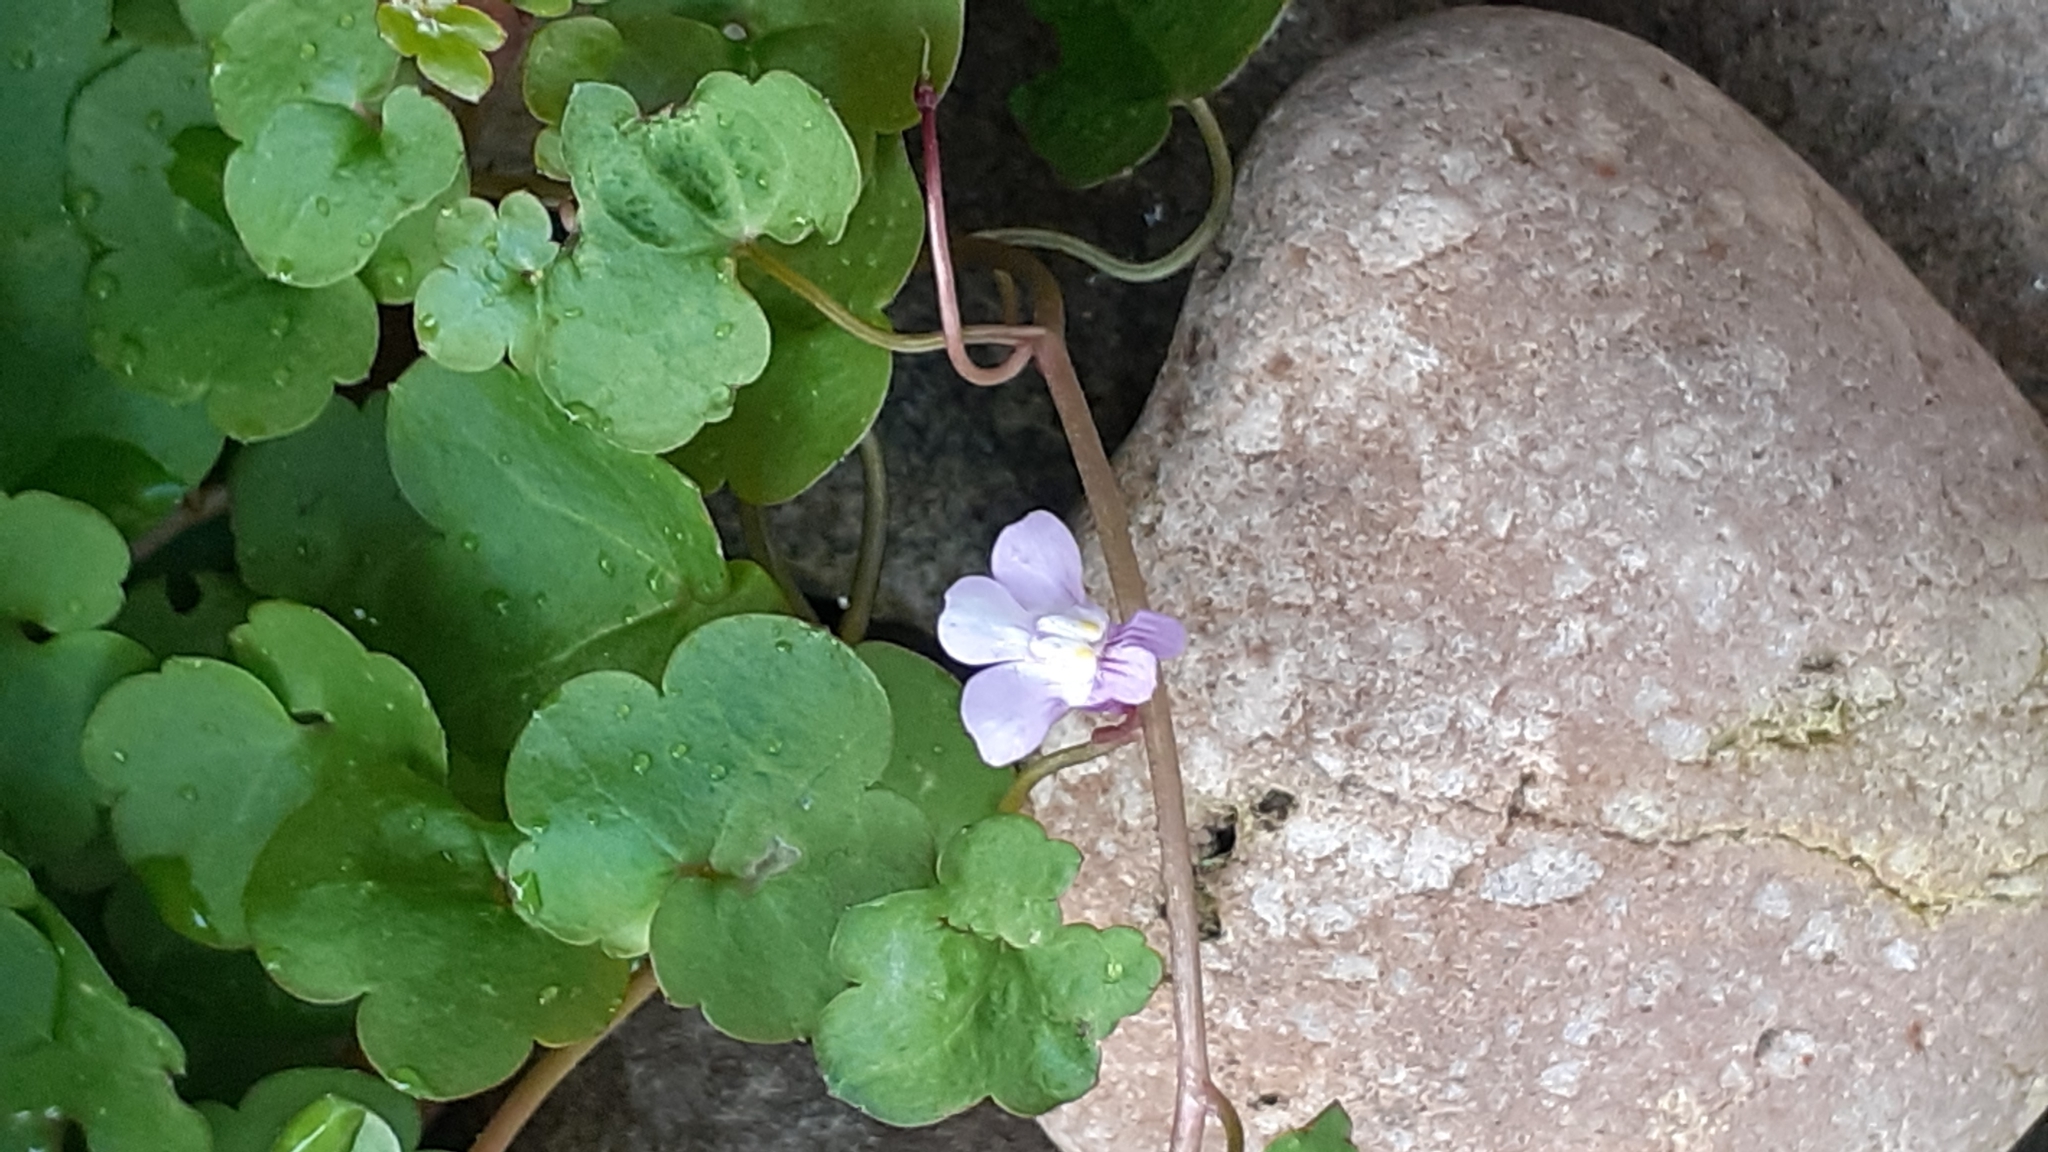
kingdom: Plantae
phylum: Tracheophyta
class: Magnoliopsida
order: Lamiales
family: Plantaginaceae
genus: Cymbalaria
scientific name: Cymbalaria muralis
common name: Ivy-leaved toadflax
